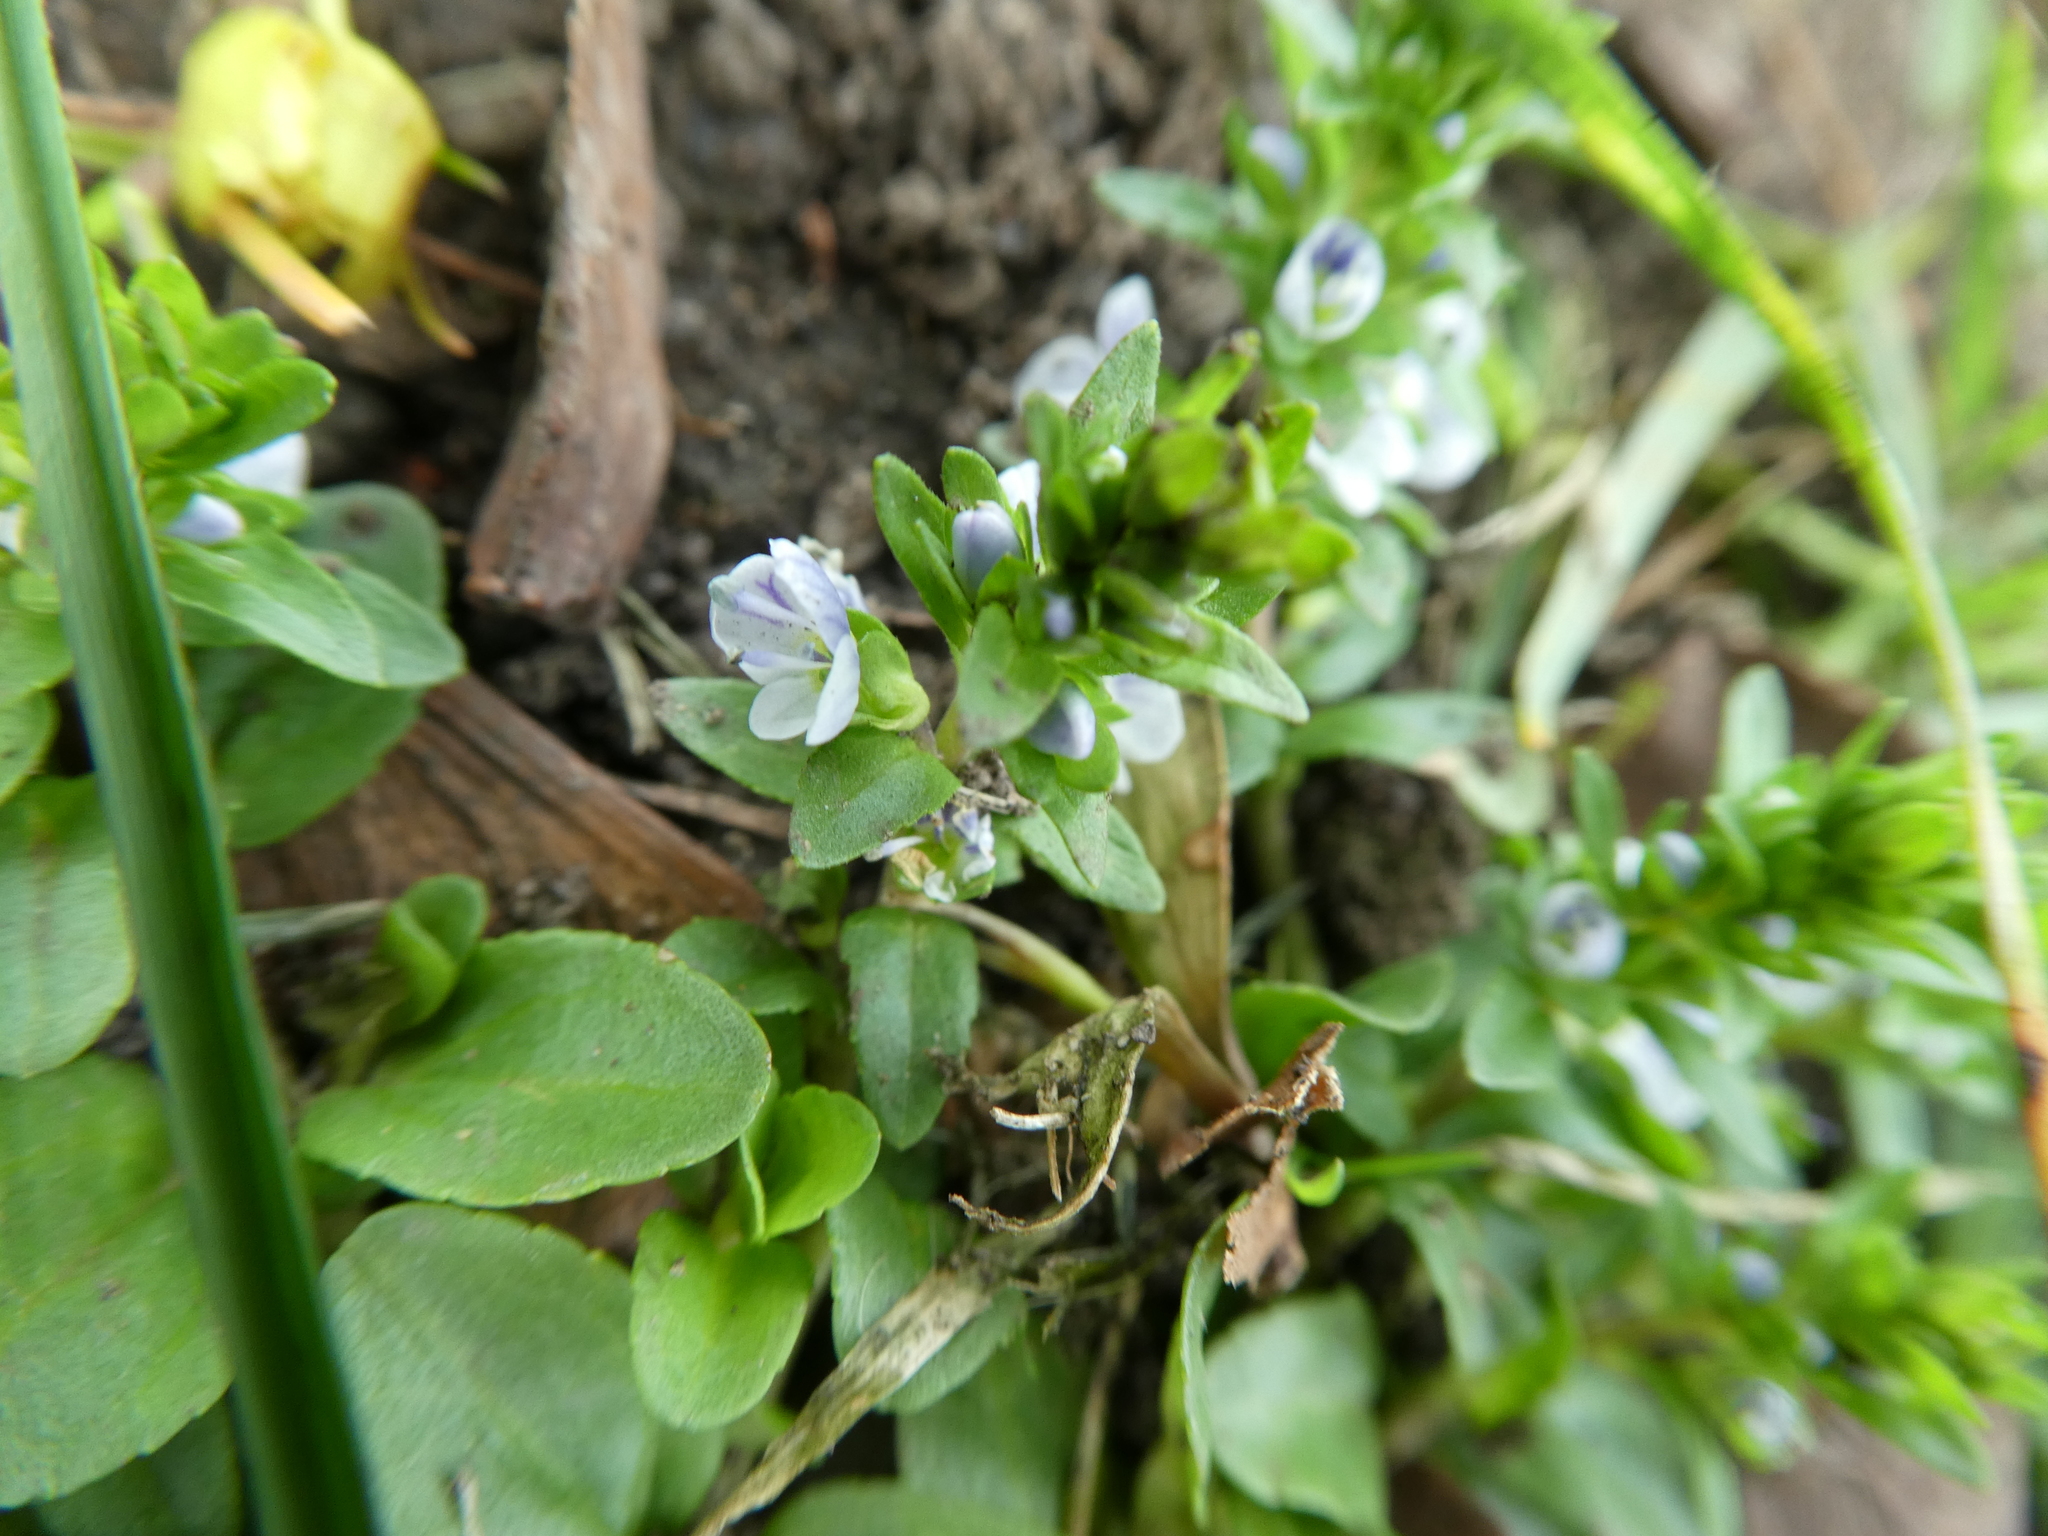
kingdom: Plantae
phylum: Tracheophyta
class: Magnoliopsida
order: Lamiales
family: Plantaginaceae
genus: Veronica
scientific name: Veronica serpyllifolia
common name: Thyme-leaved speedwell
